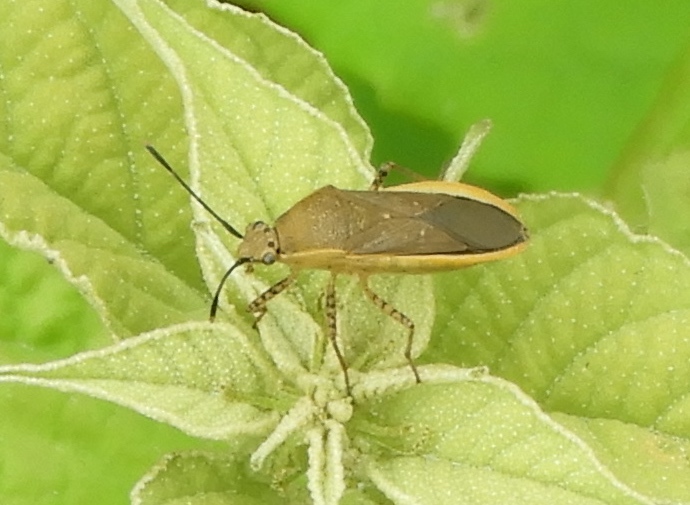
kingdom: Animalia
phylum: Arthropoda
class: Insecta
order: Hemiptera
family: Coreidae
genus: Catorhintha
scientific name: Catorhintha selector
